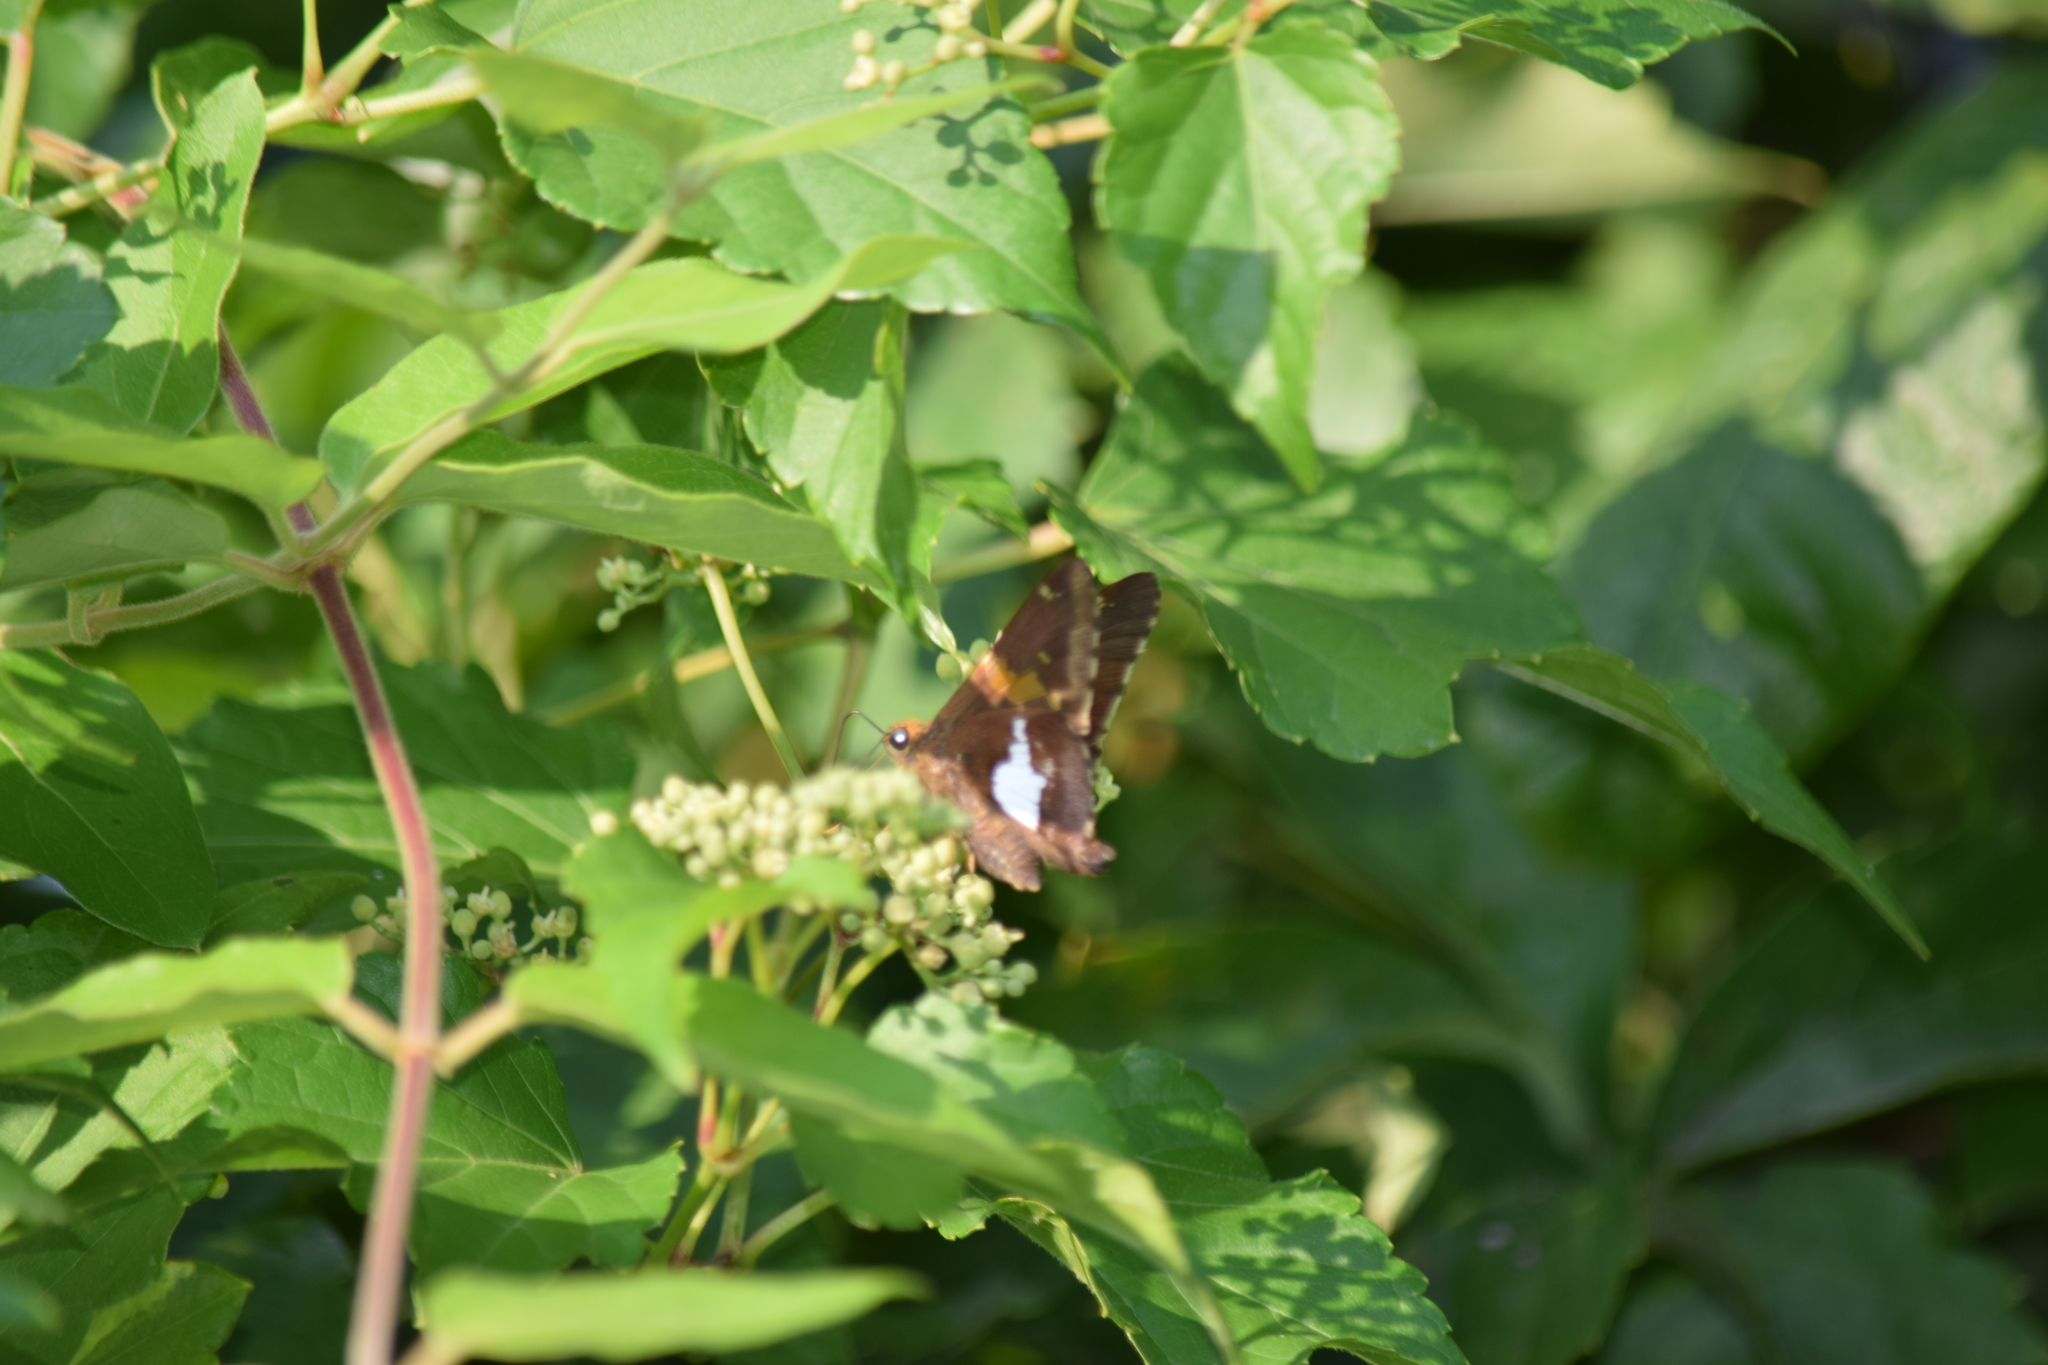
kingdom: Animalia
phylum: Arthropoda
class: Insecta
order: Lepidoptera
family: Hesperiidae
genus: Epargyreus
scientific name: Epargyreus clarus
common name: Silver-spotted skipper
